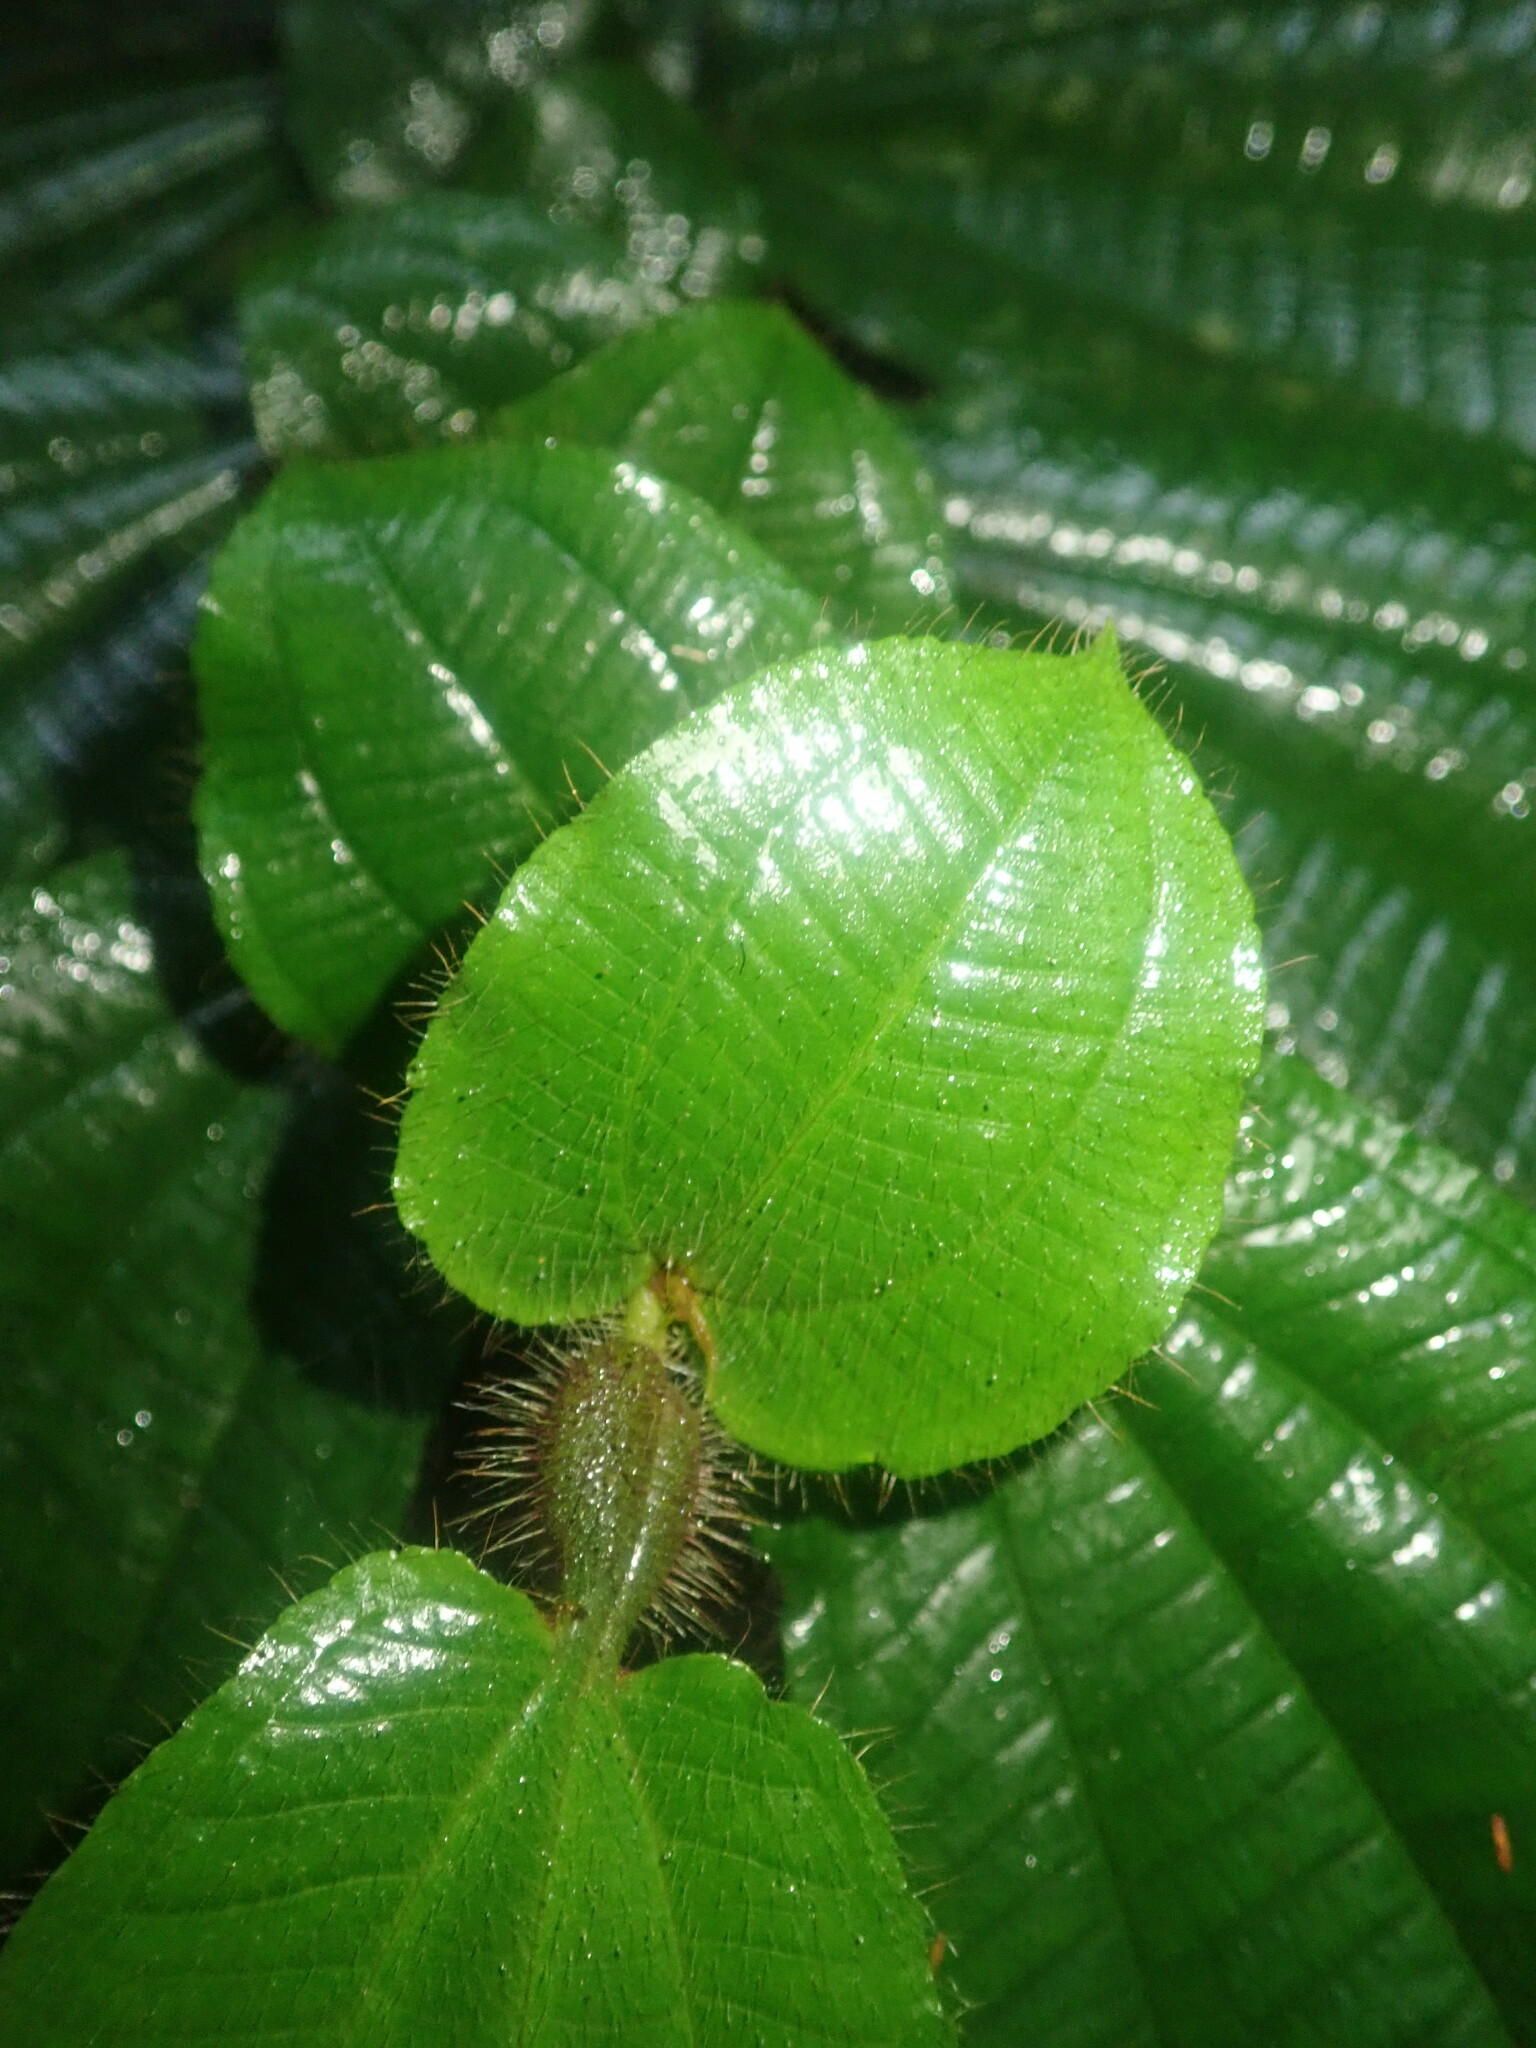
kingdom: Plantae
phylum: Tracheophyta
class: Magnoliopsida
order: Myrtales
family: Melastomataceae
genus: Miconia
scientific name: Miconia richardsprucei
